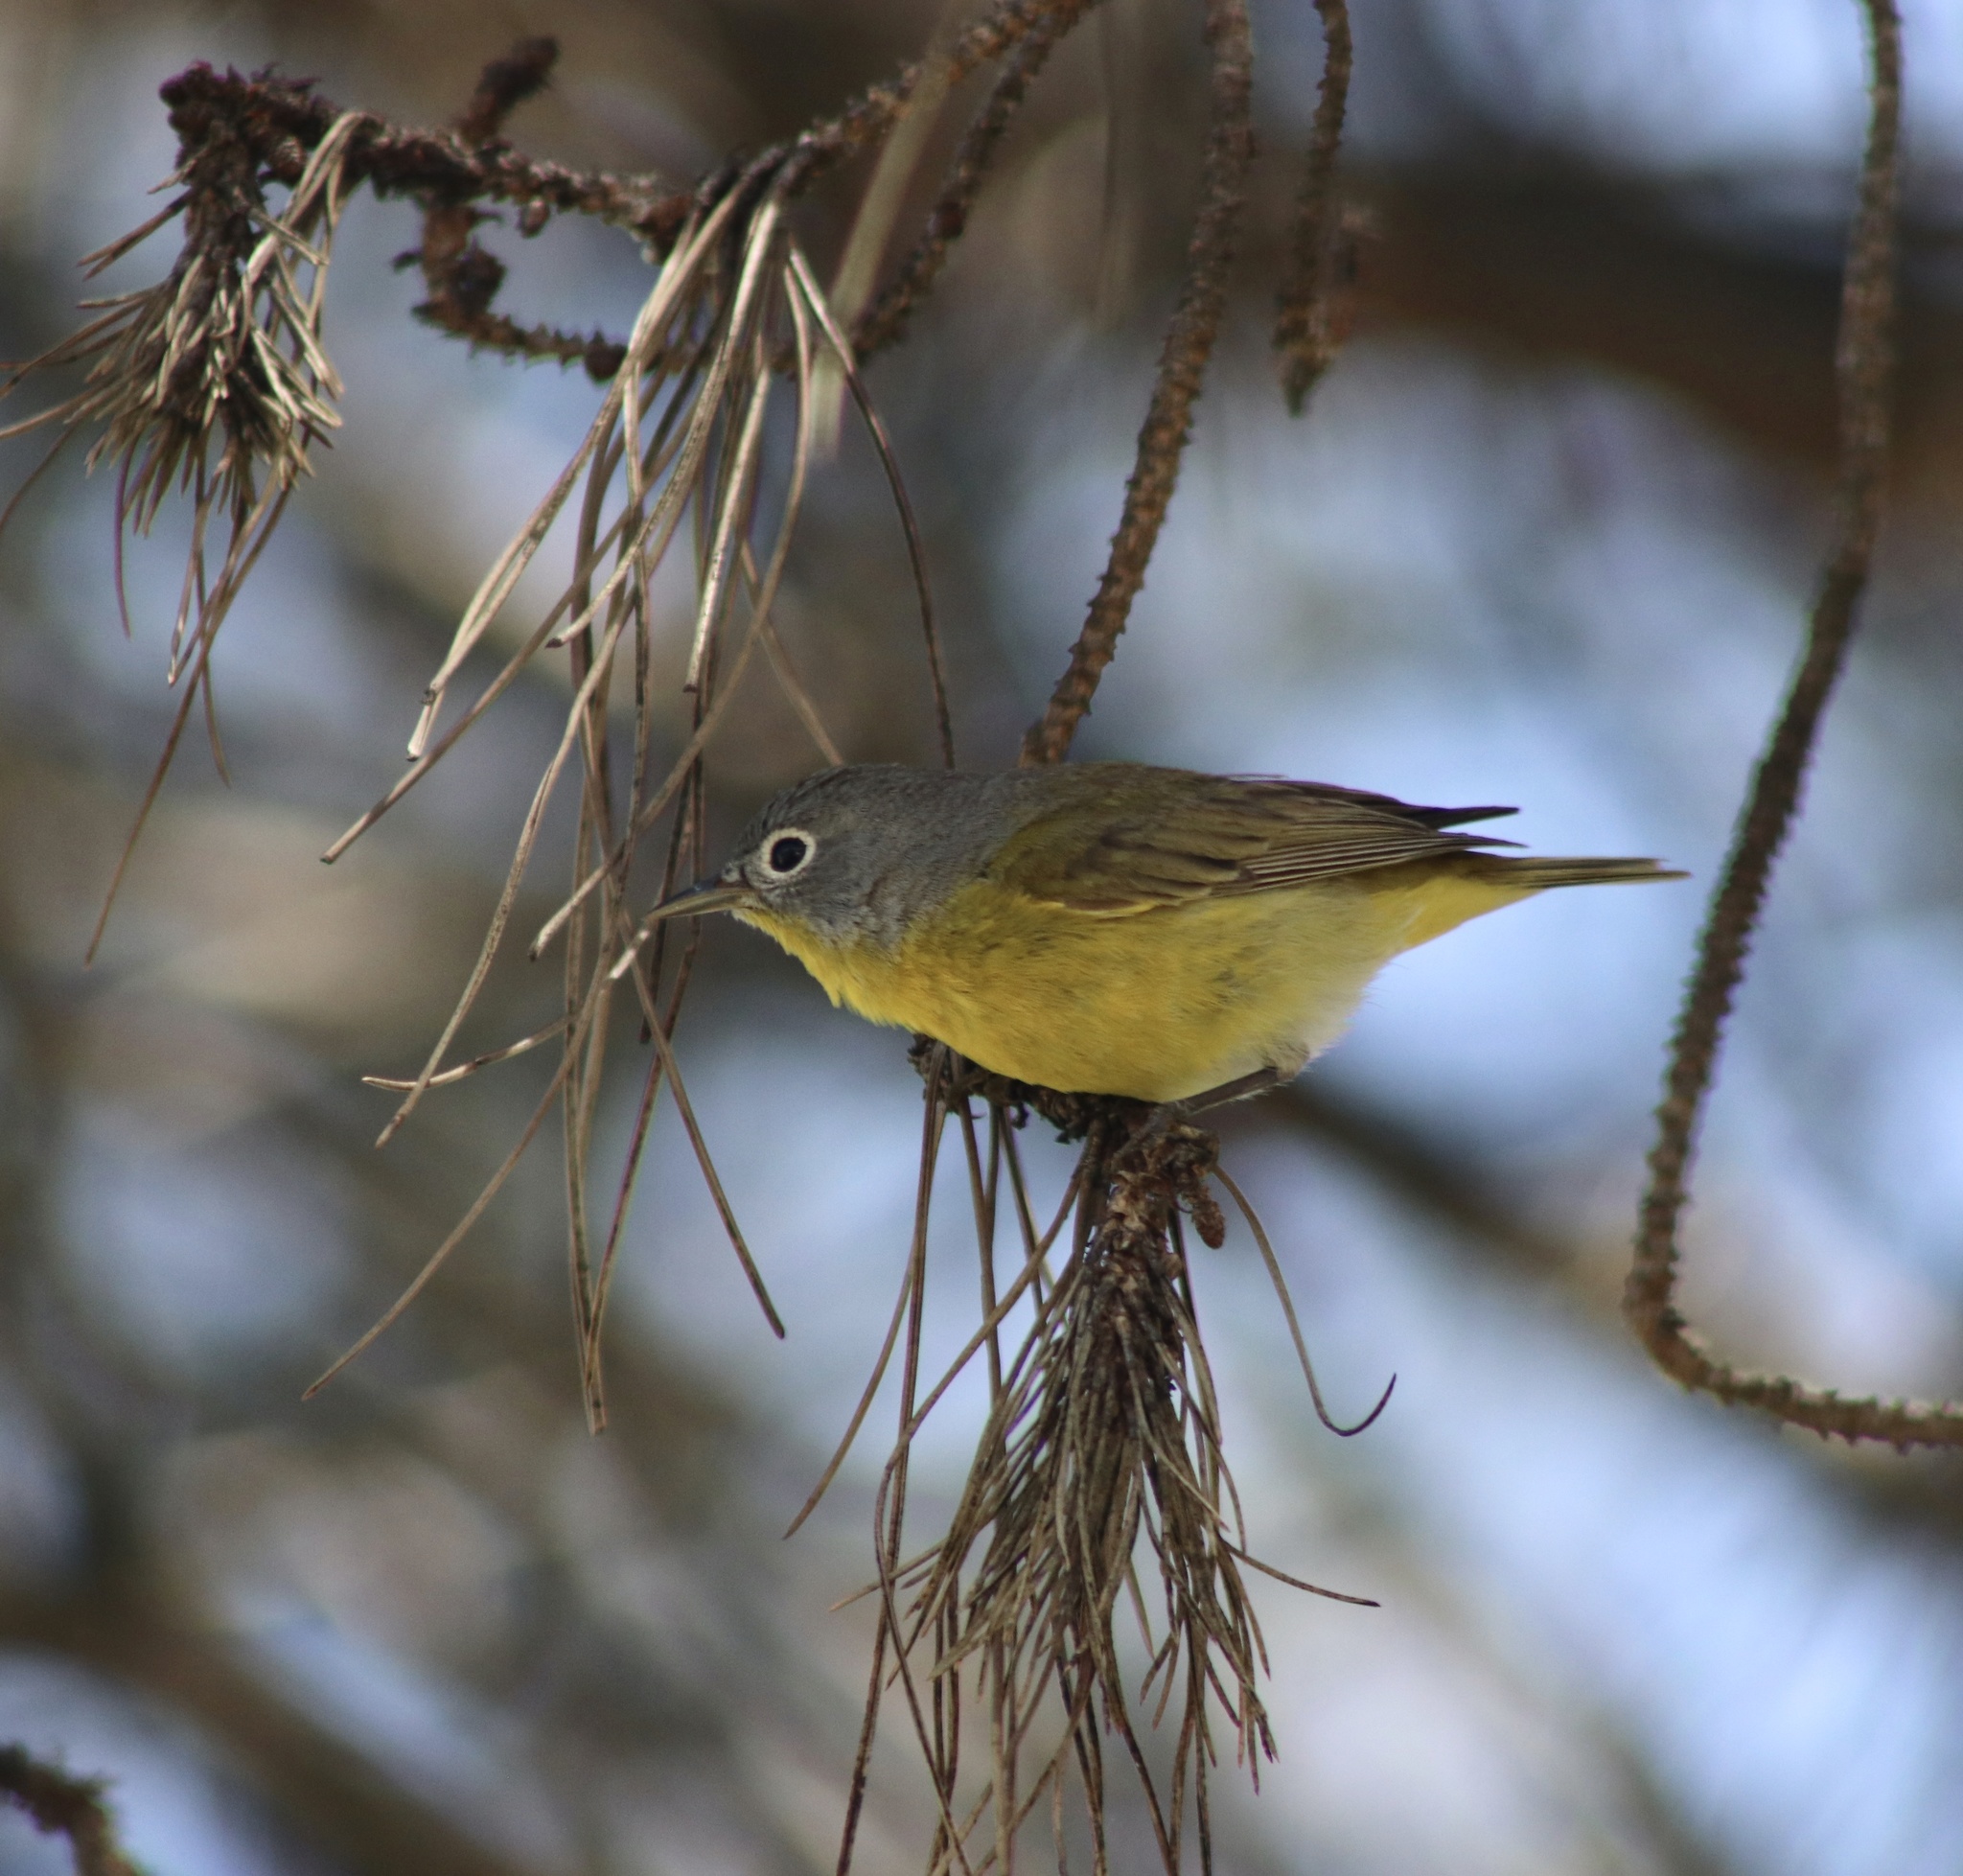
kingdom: Animalia
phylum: Chordata
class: Aves
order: Passeriformes
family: Parulidae
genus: Leiothlypis
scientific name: Leiothlypis ruficapilla
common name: Nashville warbler
